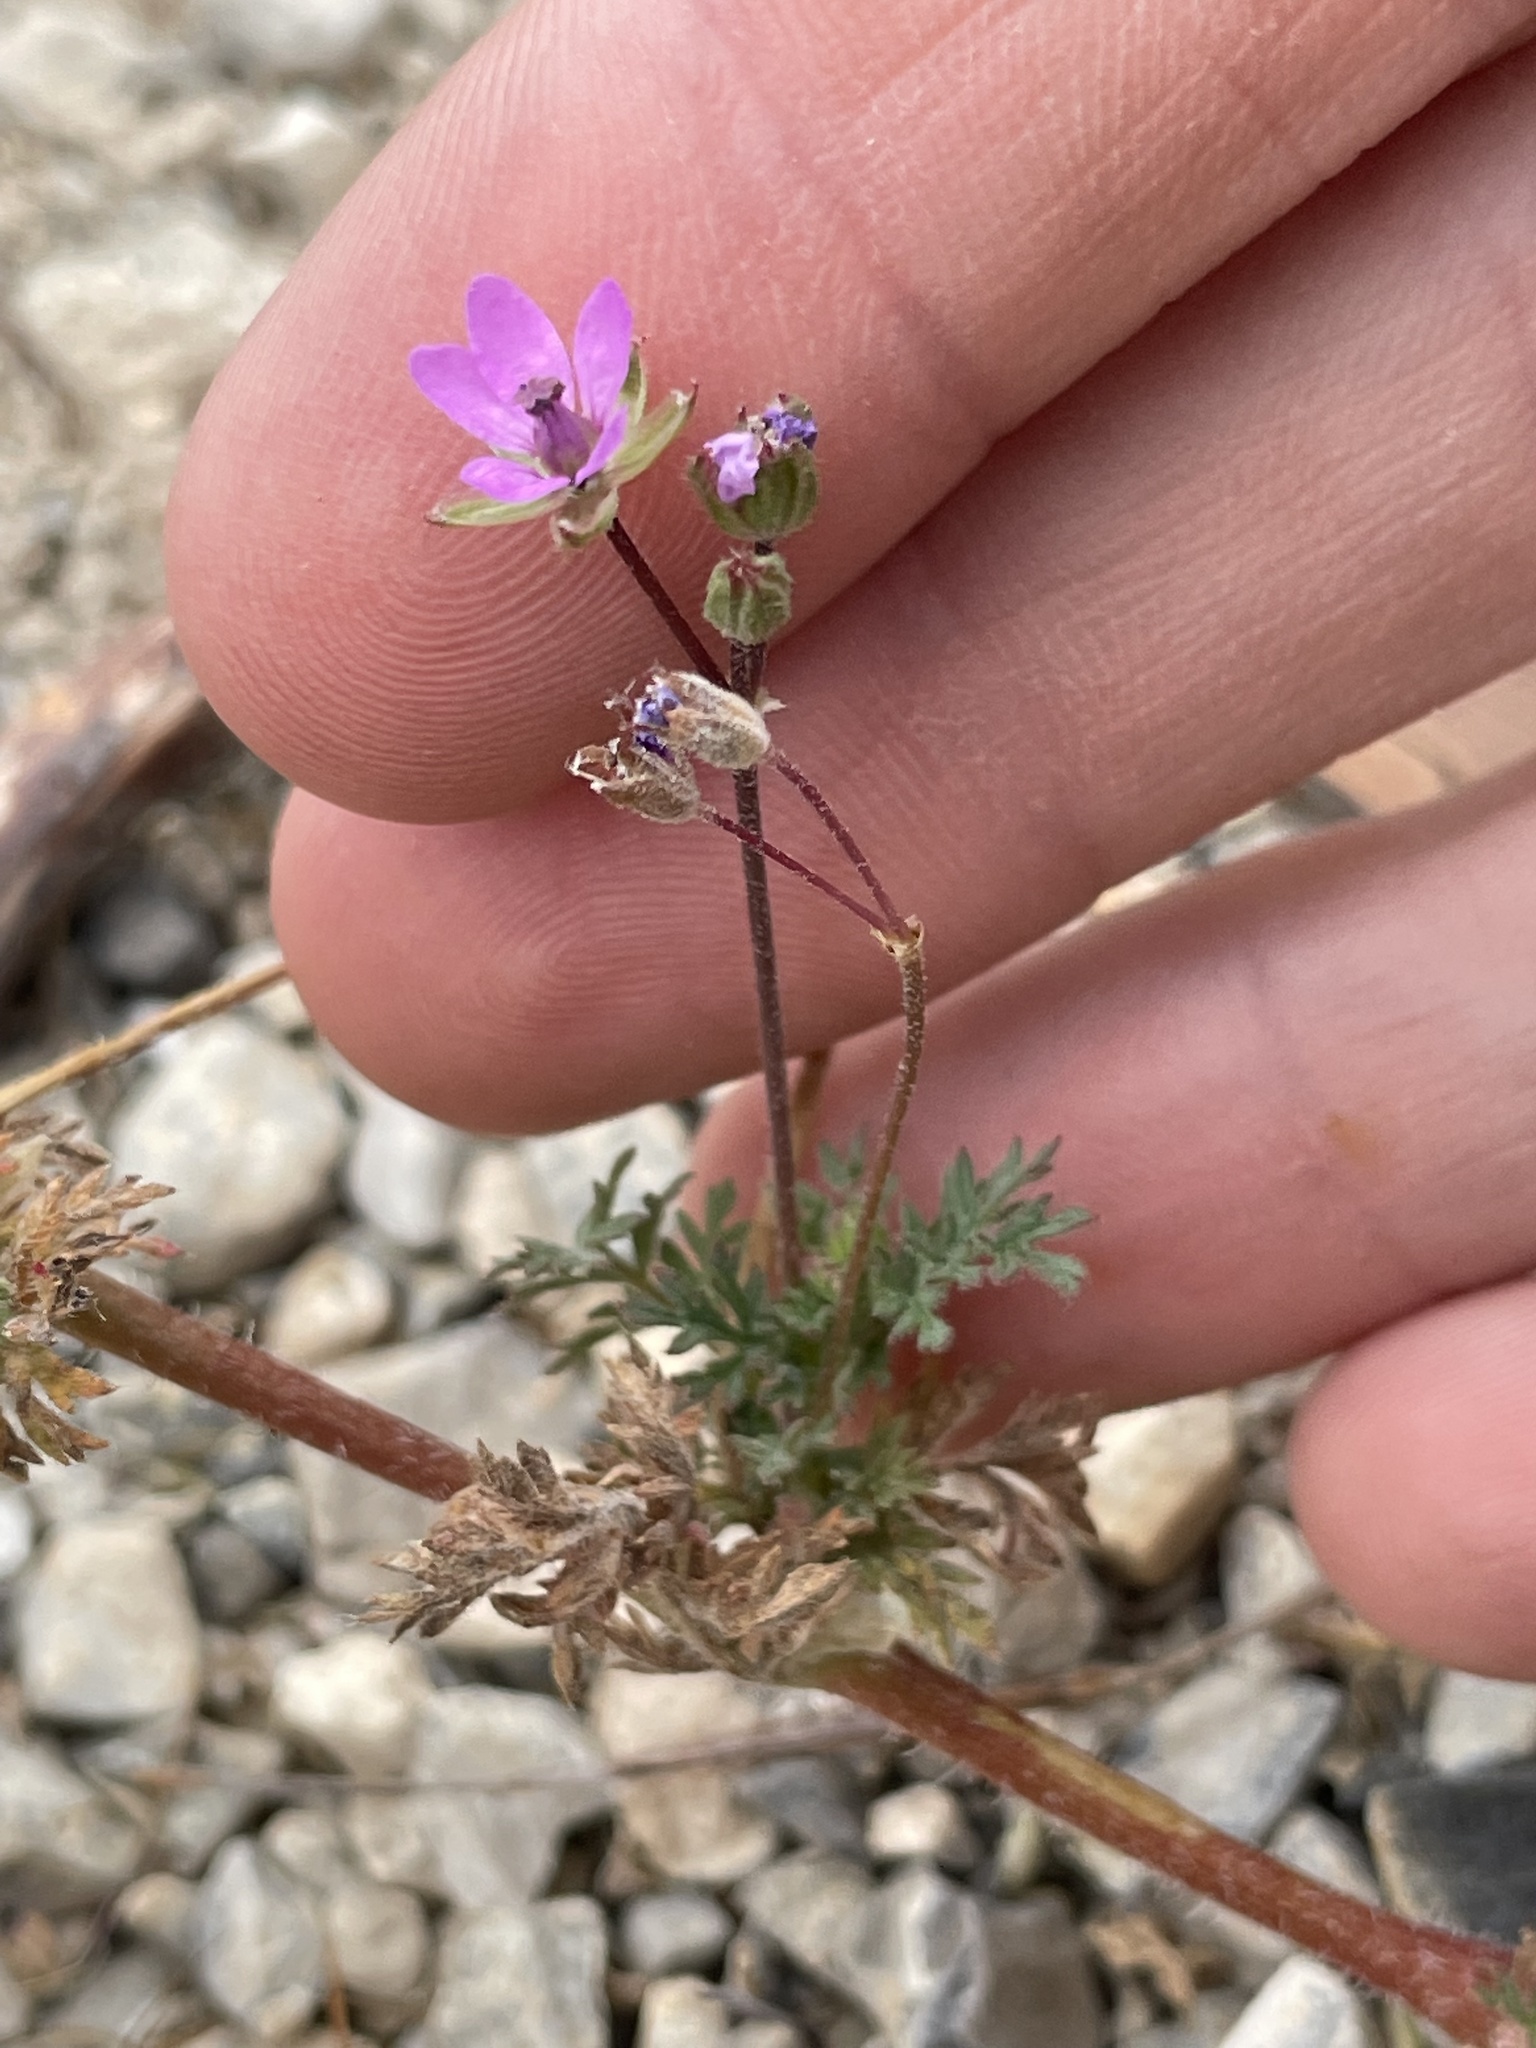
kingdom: Plantae
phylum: Tracheophyta
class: Magnoliopsida
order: Geraniales
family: Geraniaceae
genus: Erodium
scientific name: Erodium cicutarium
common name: Common stork's-bill
